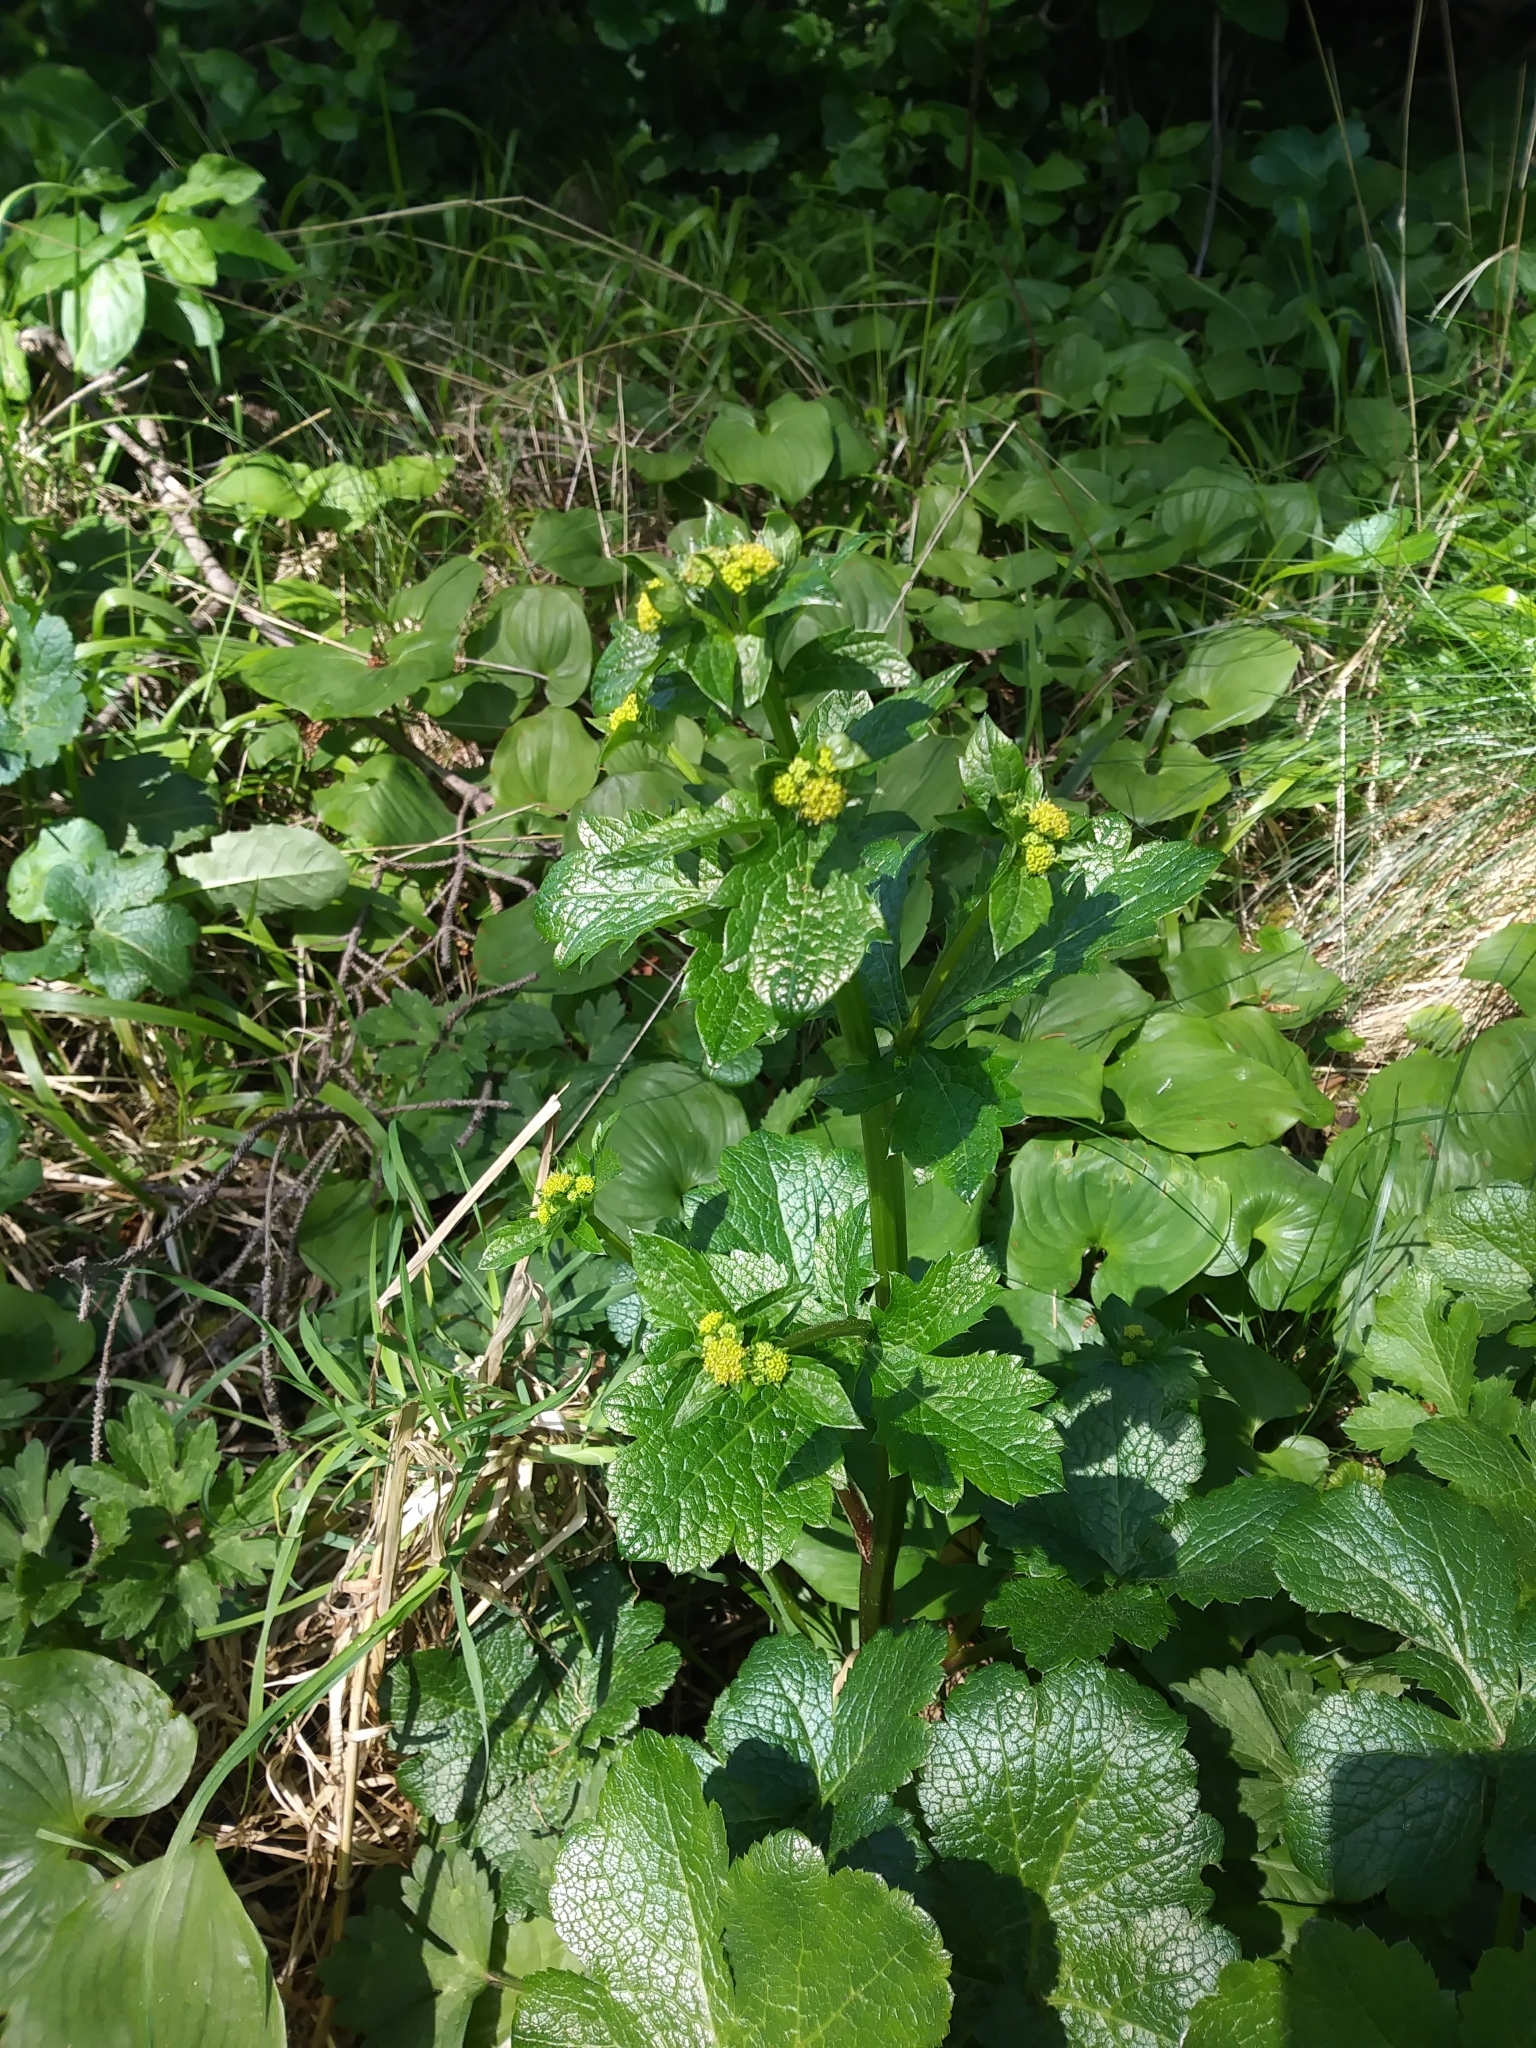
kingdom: Plantae
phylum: Tracheophyta
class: Magnoliopsida
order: Apiales
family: Apiaceae
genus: Sanicula
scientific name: Sanicula crassicaulis
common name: Western snakeroot
